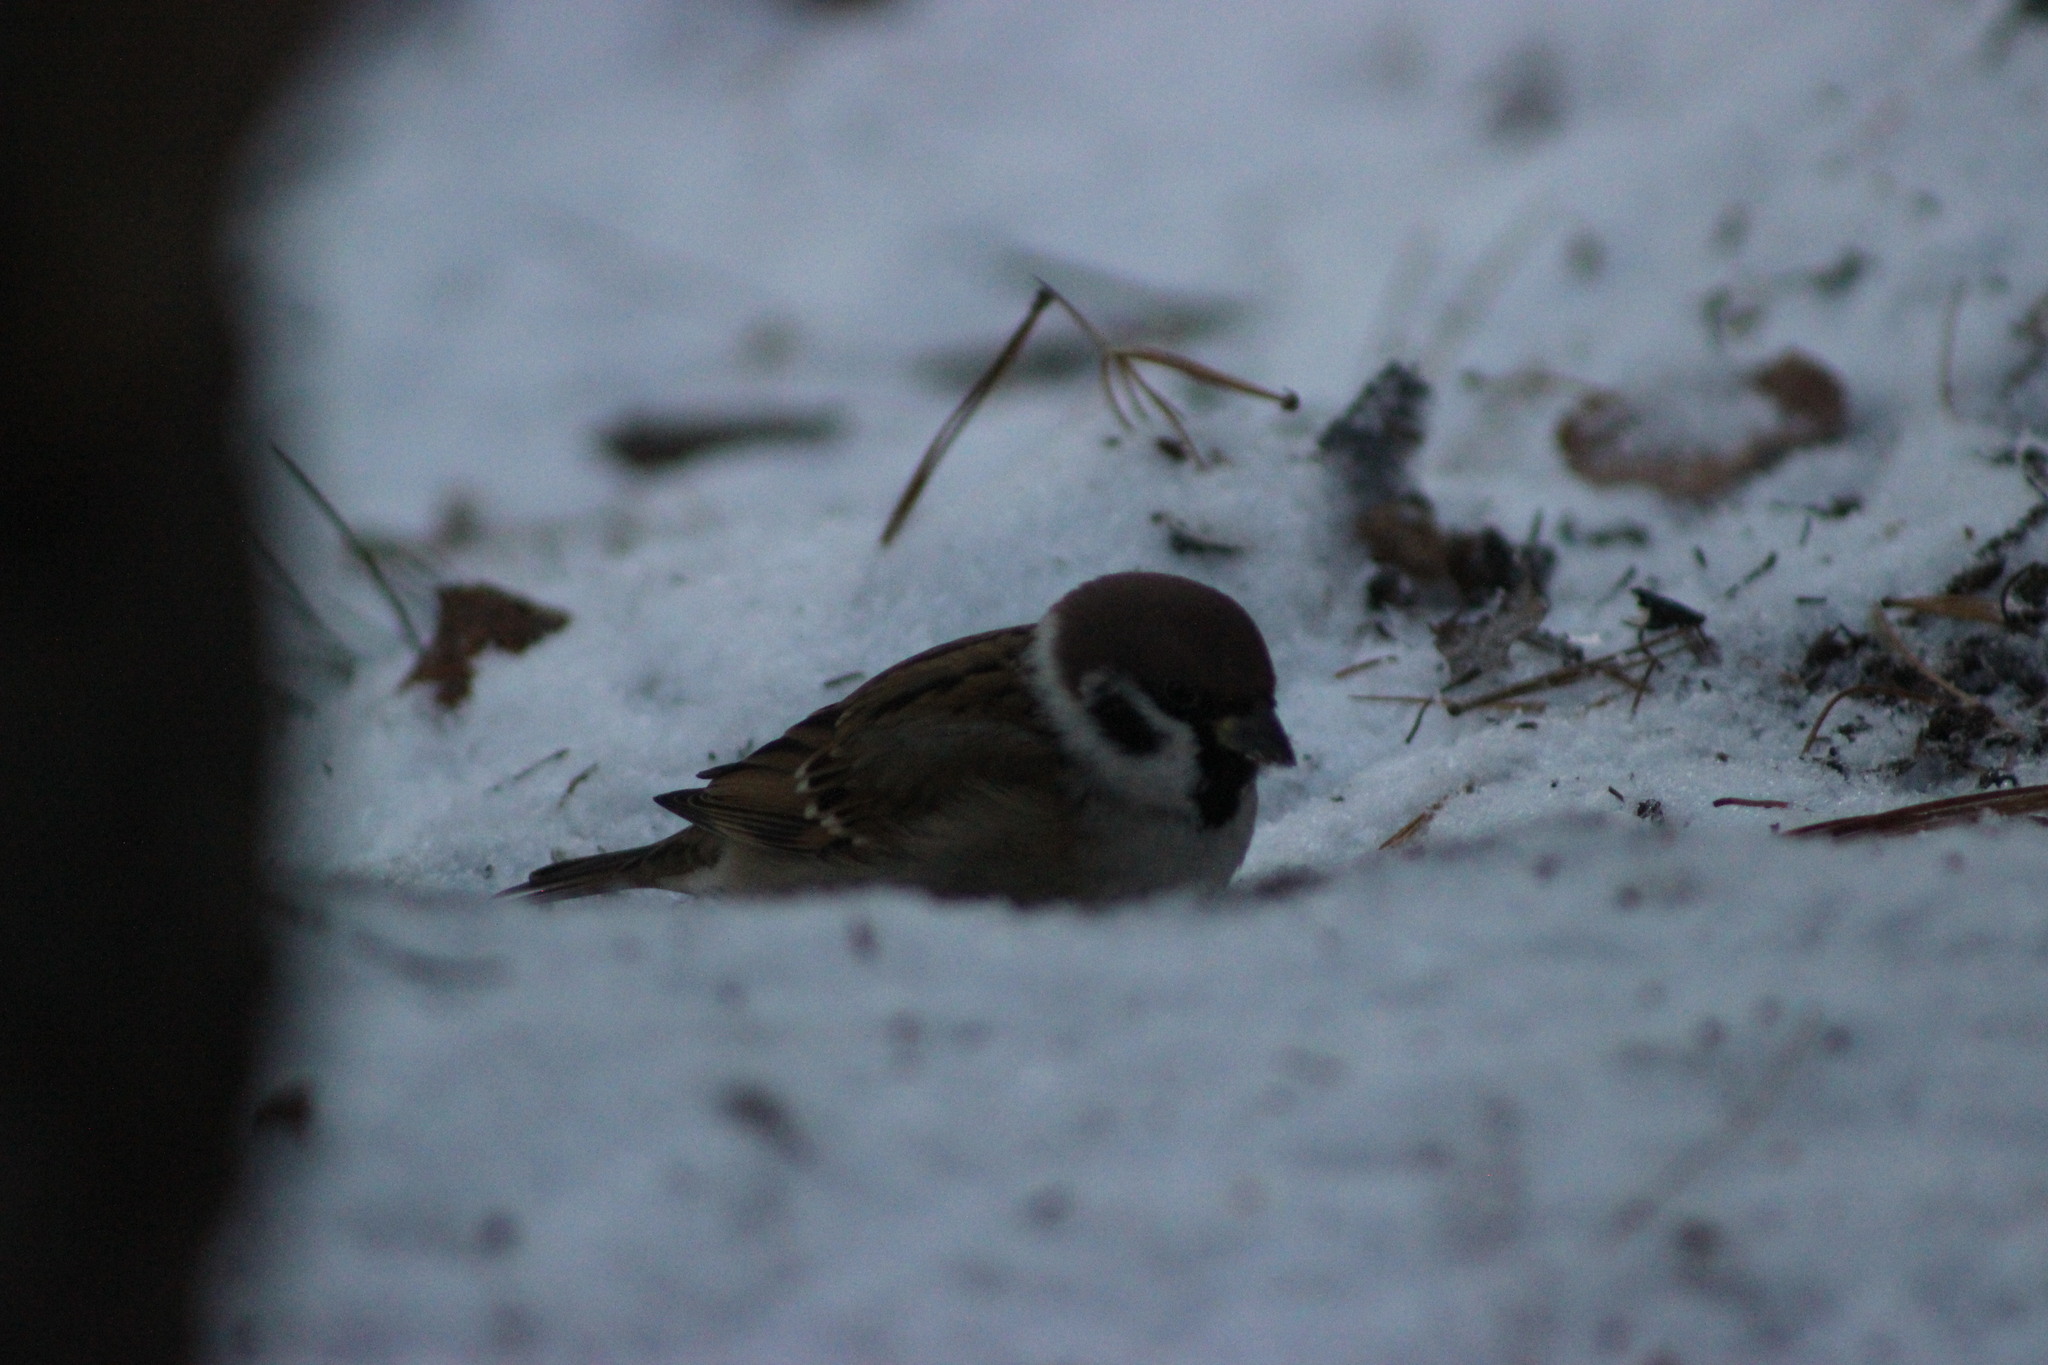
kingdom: Animalia
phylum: Chordata
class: Aves
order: Passeriformes
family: Passeridae
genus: Passer
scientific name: Passer montanus
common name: Eurasian tree sparrow
